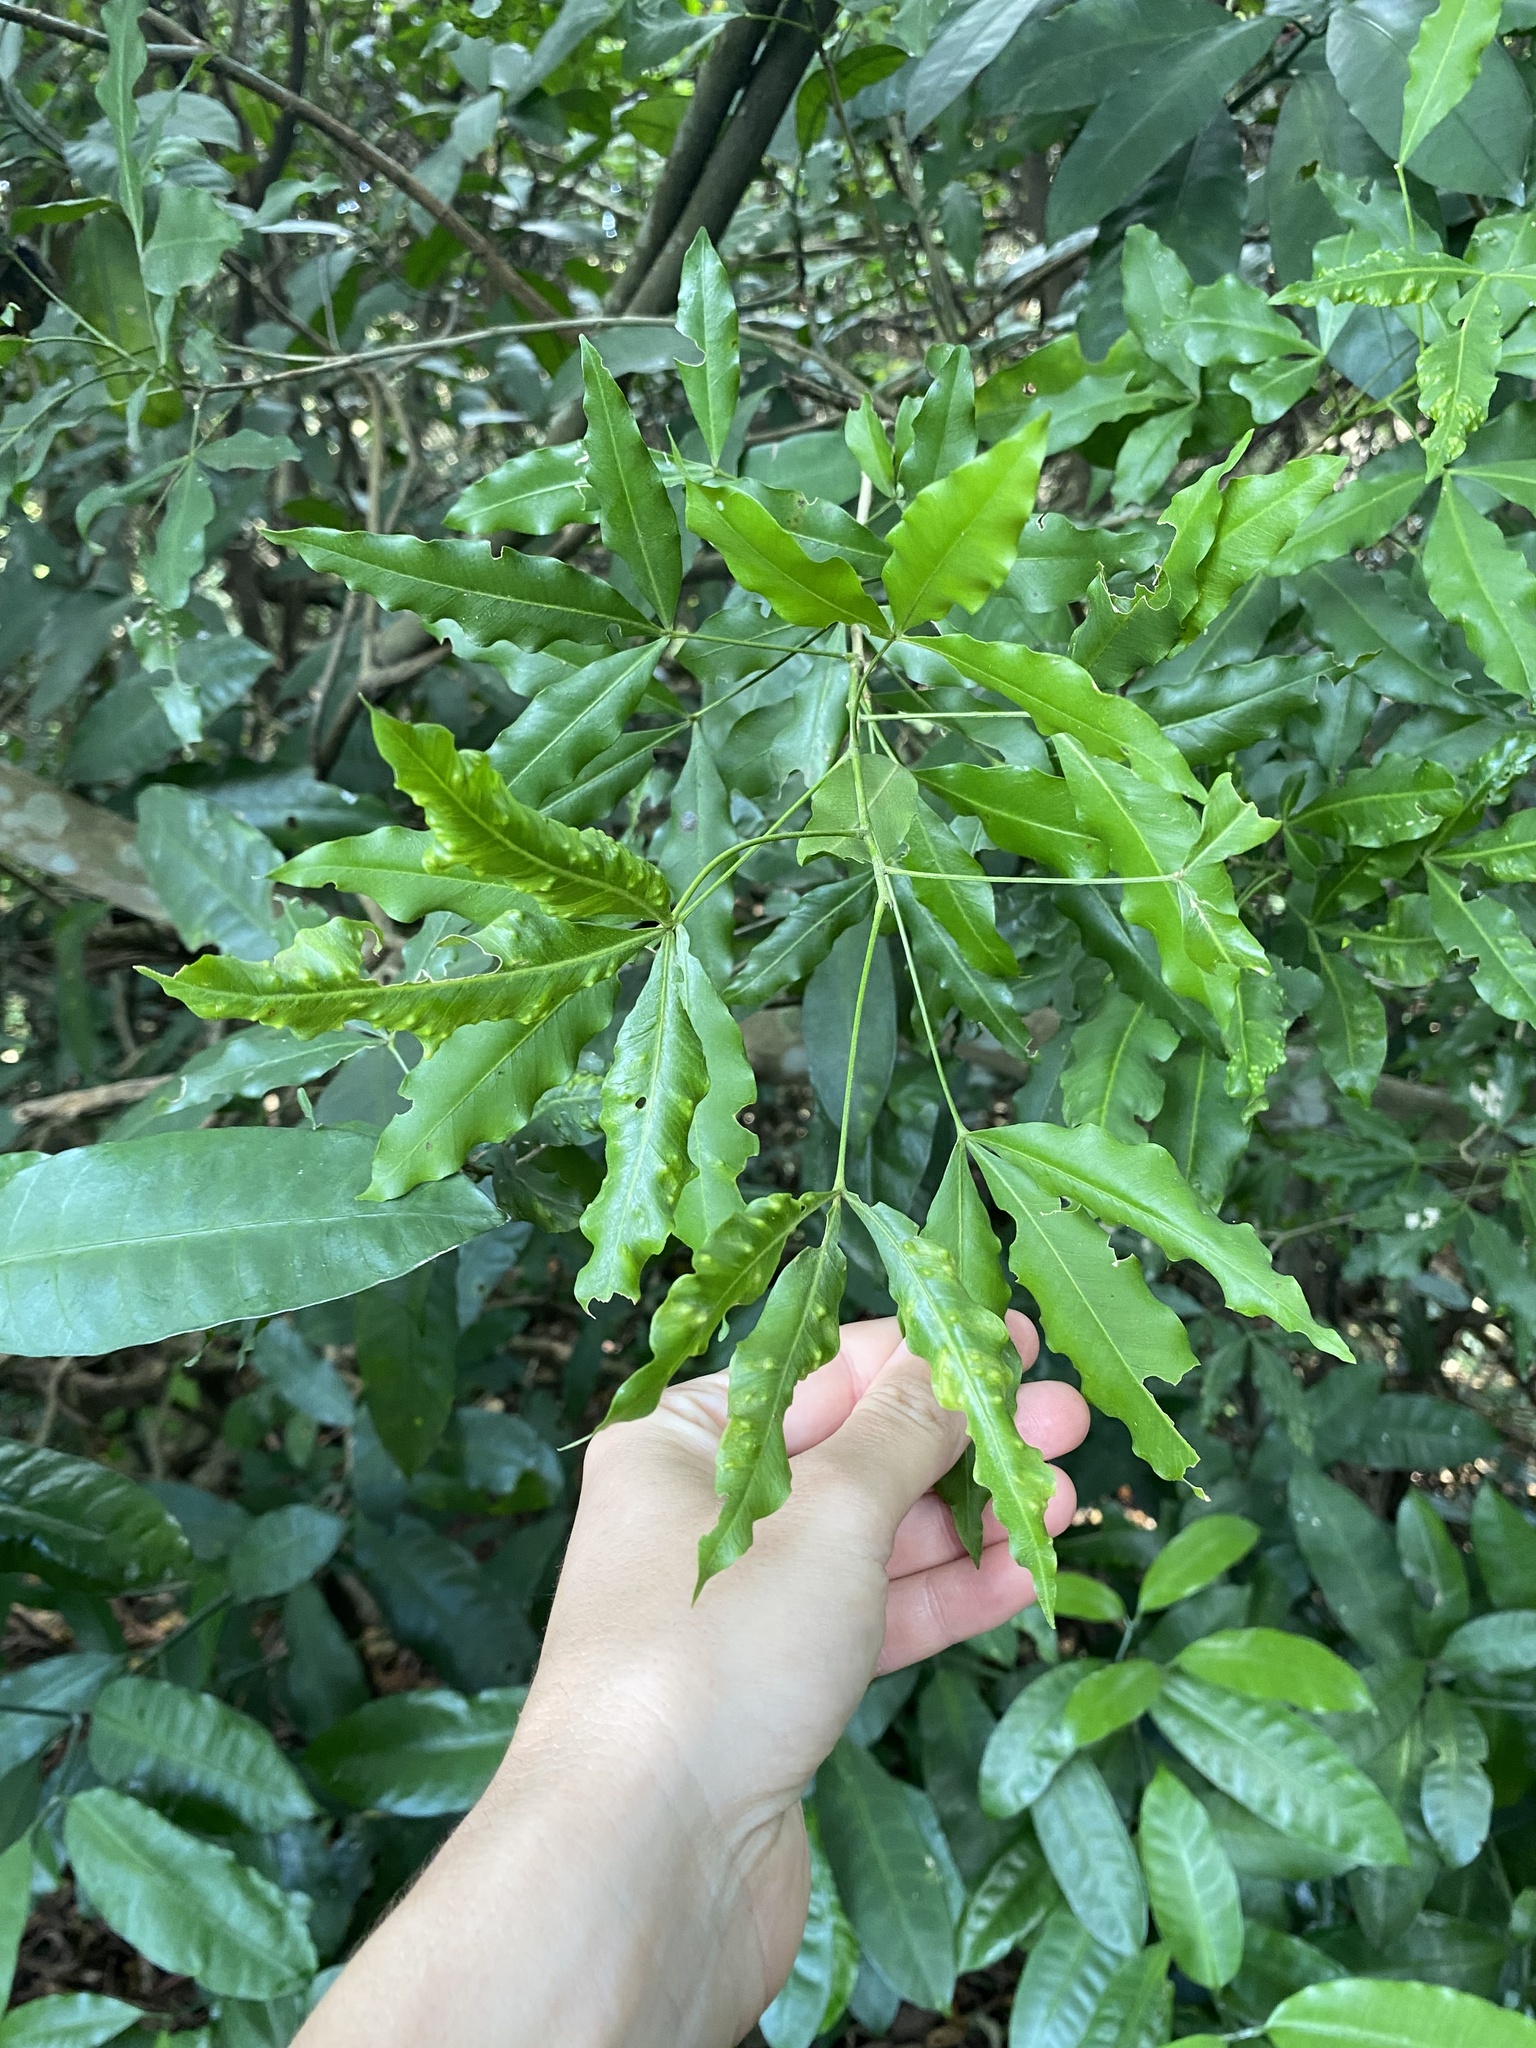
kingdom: Plantae
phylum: Tracheophyta
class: Magnoliopsida
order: Sapindales
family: Rutaceae
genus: Vepris
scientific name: Vepris lanceolata
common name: White ironwood
